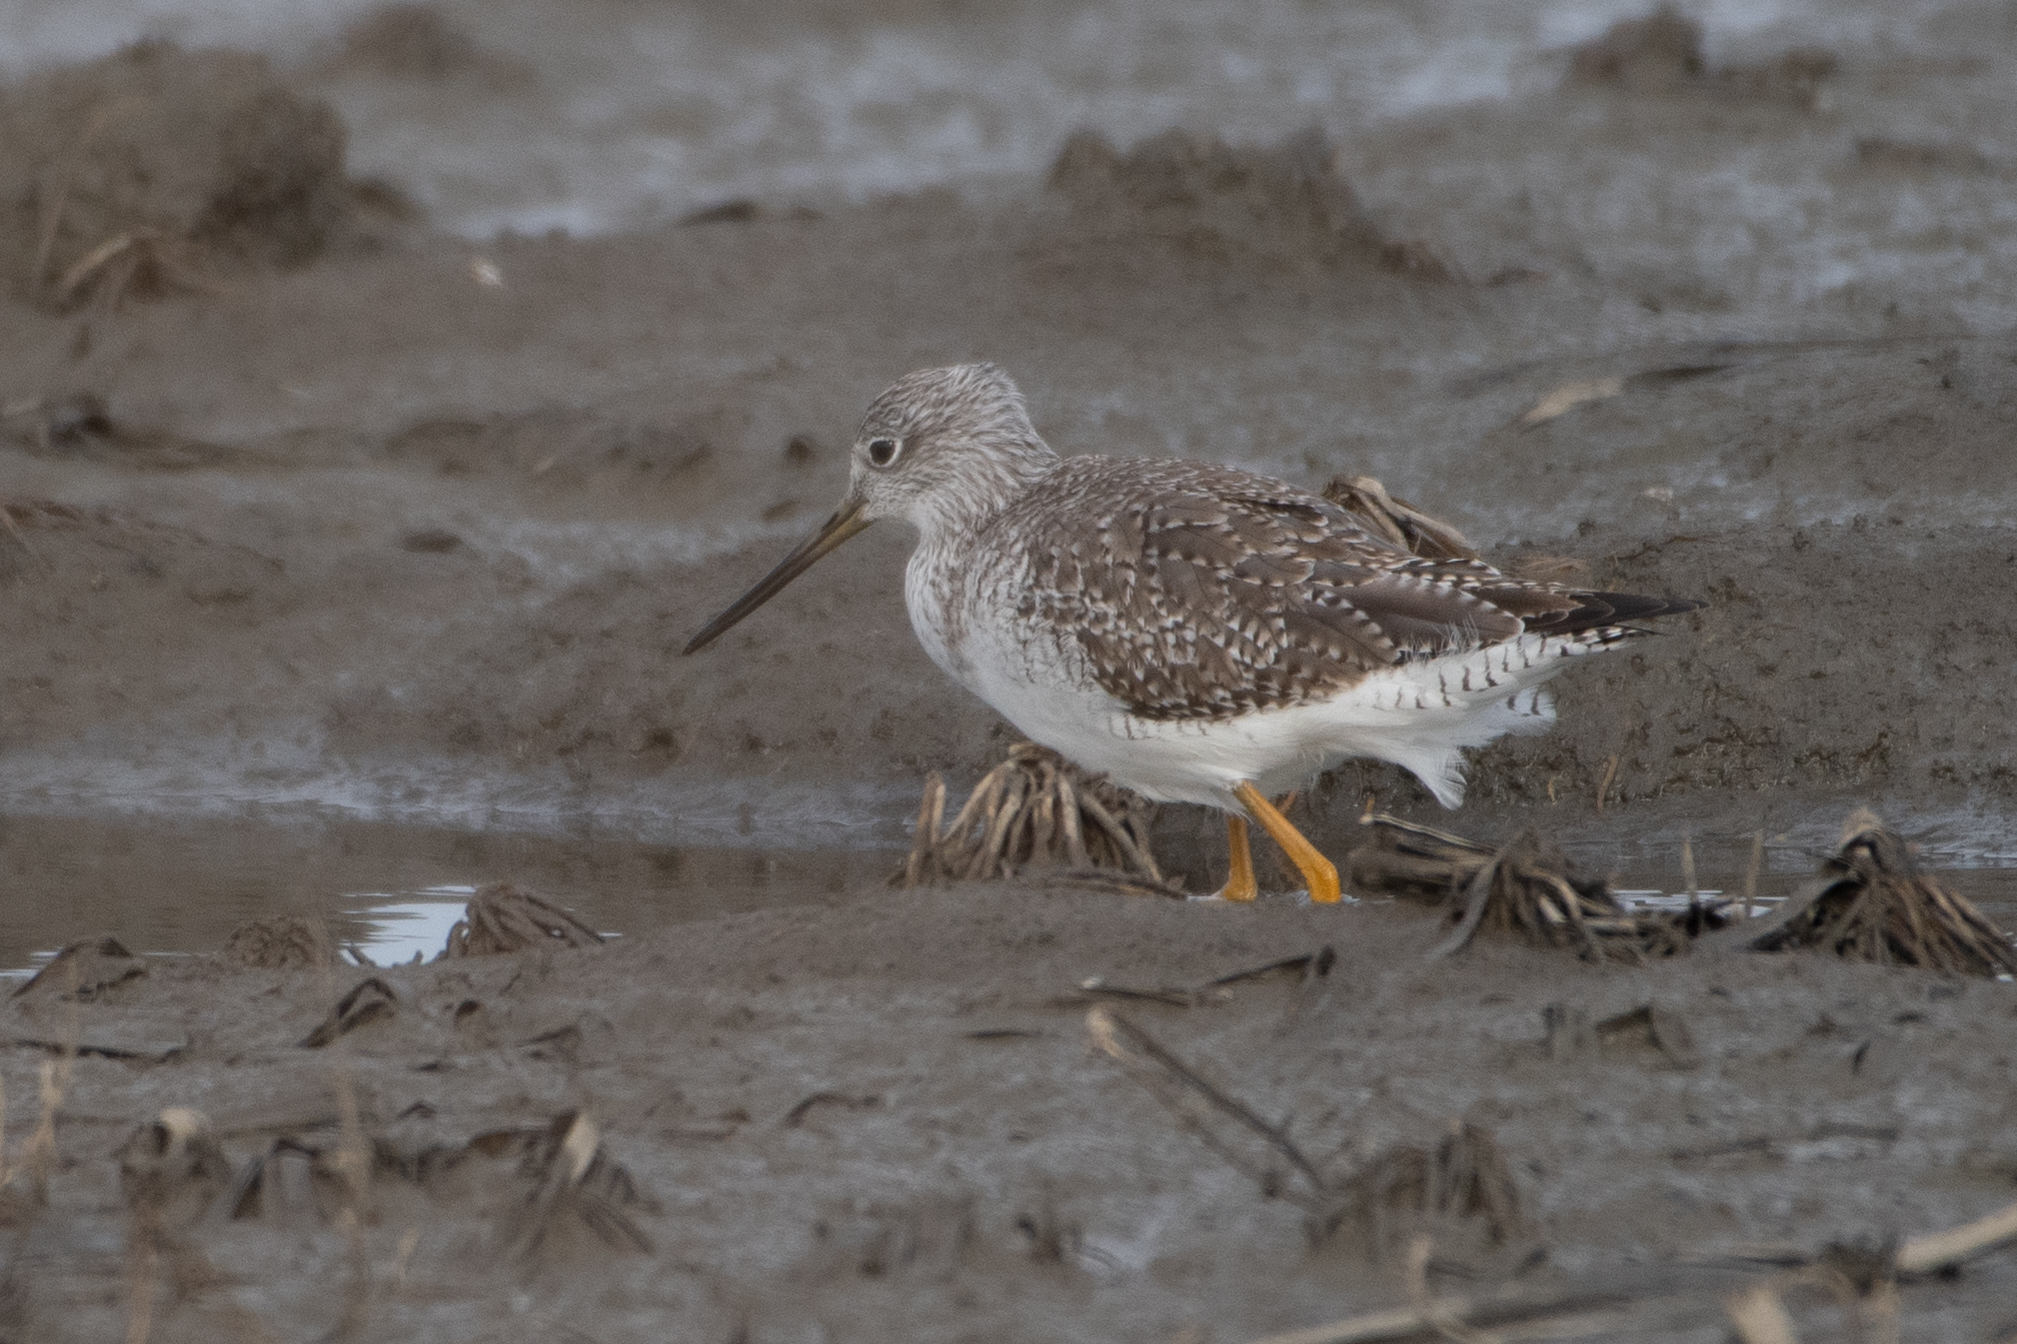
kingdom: Animalia
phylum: Chordata
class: Aves
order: Charadriiformes
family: Scolopacidae
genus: Tringa
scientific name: Tringa melanoleuca
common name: Greater yellowlegs
